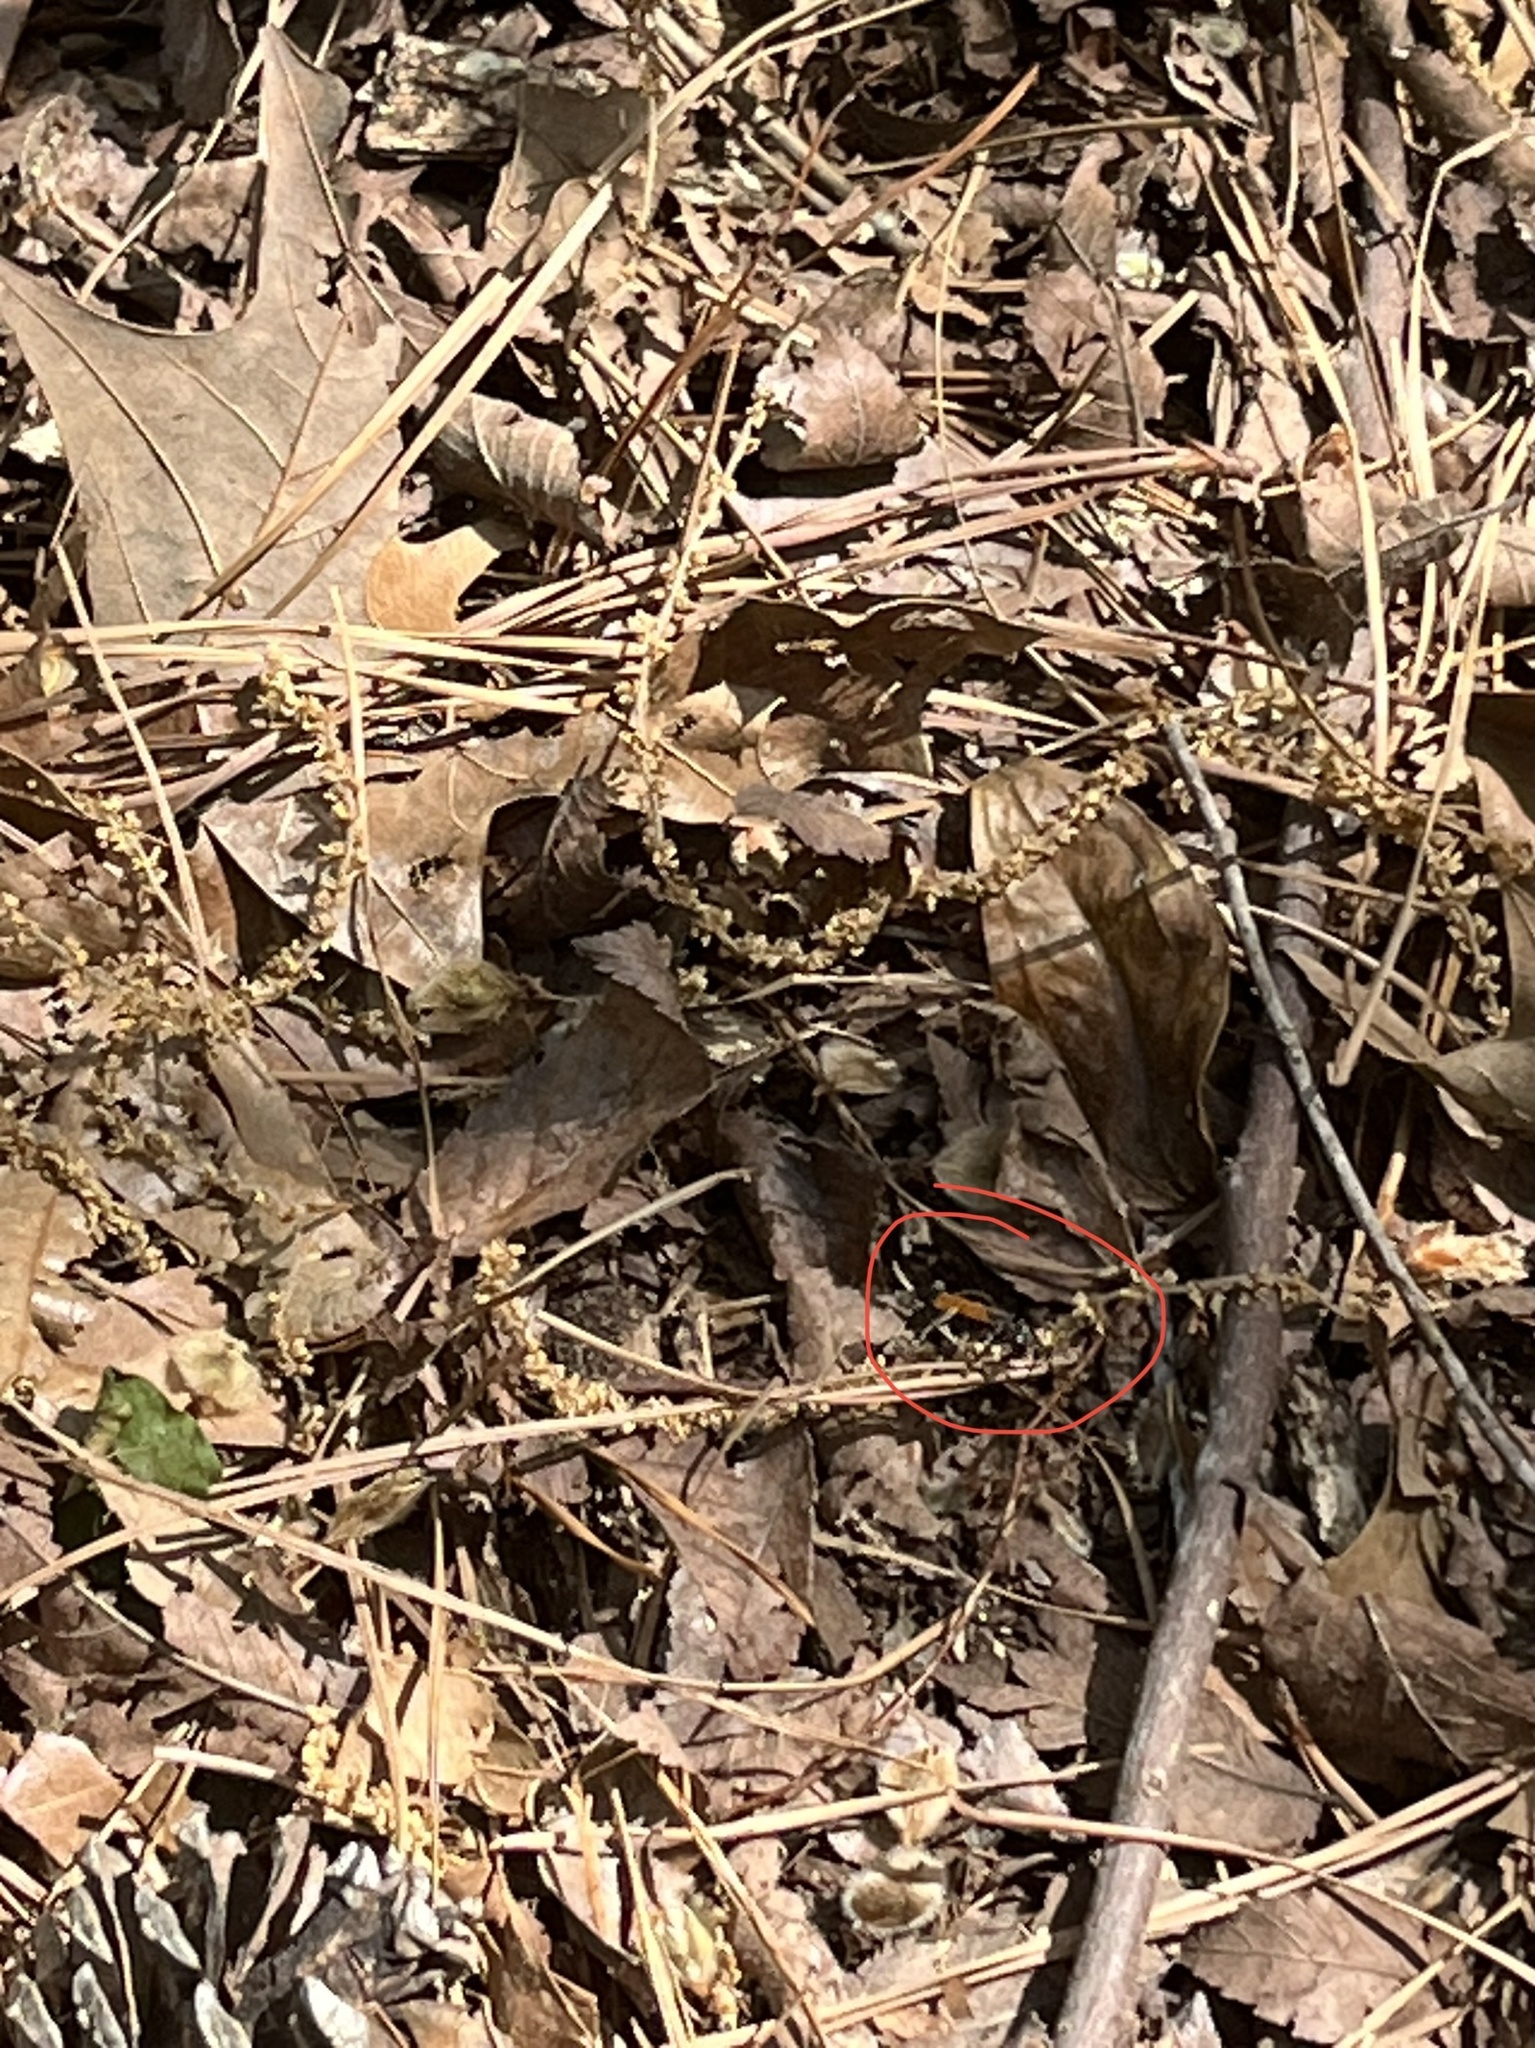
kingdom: Animalia
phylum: Arthropoda
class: Insecta
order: Hymenoptera
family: Crabronidae
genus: Liris
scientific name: Liris partitus
